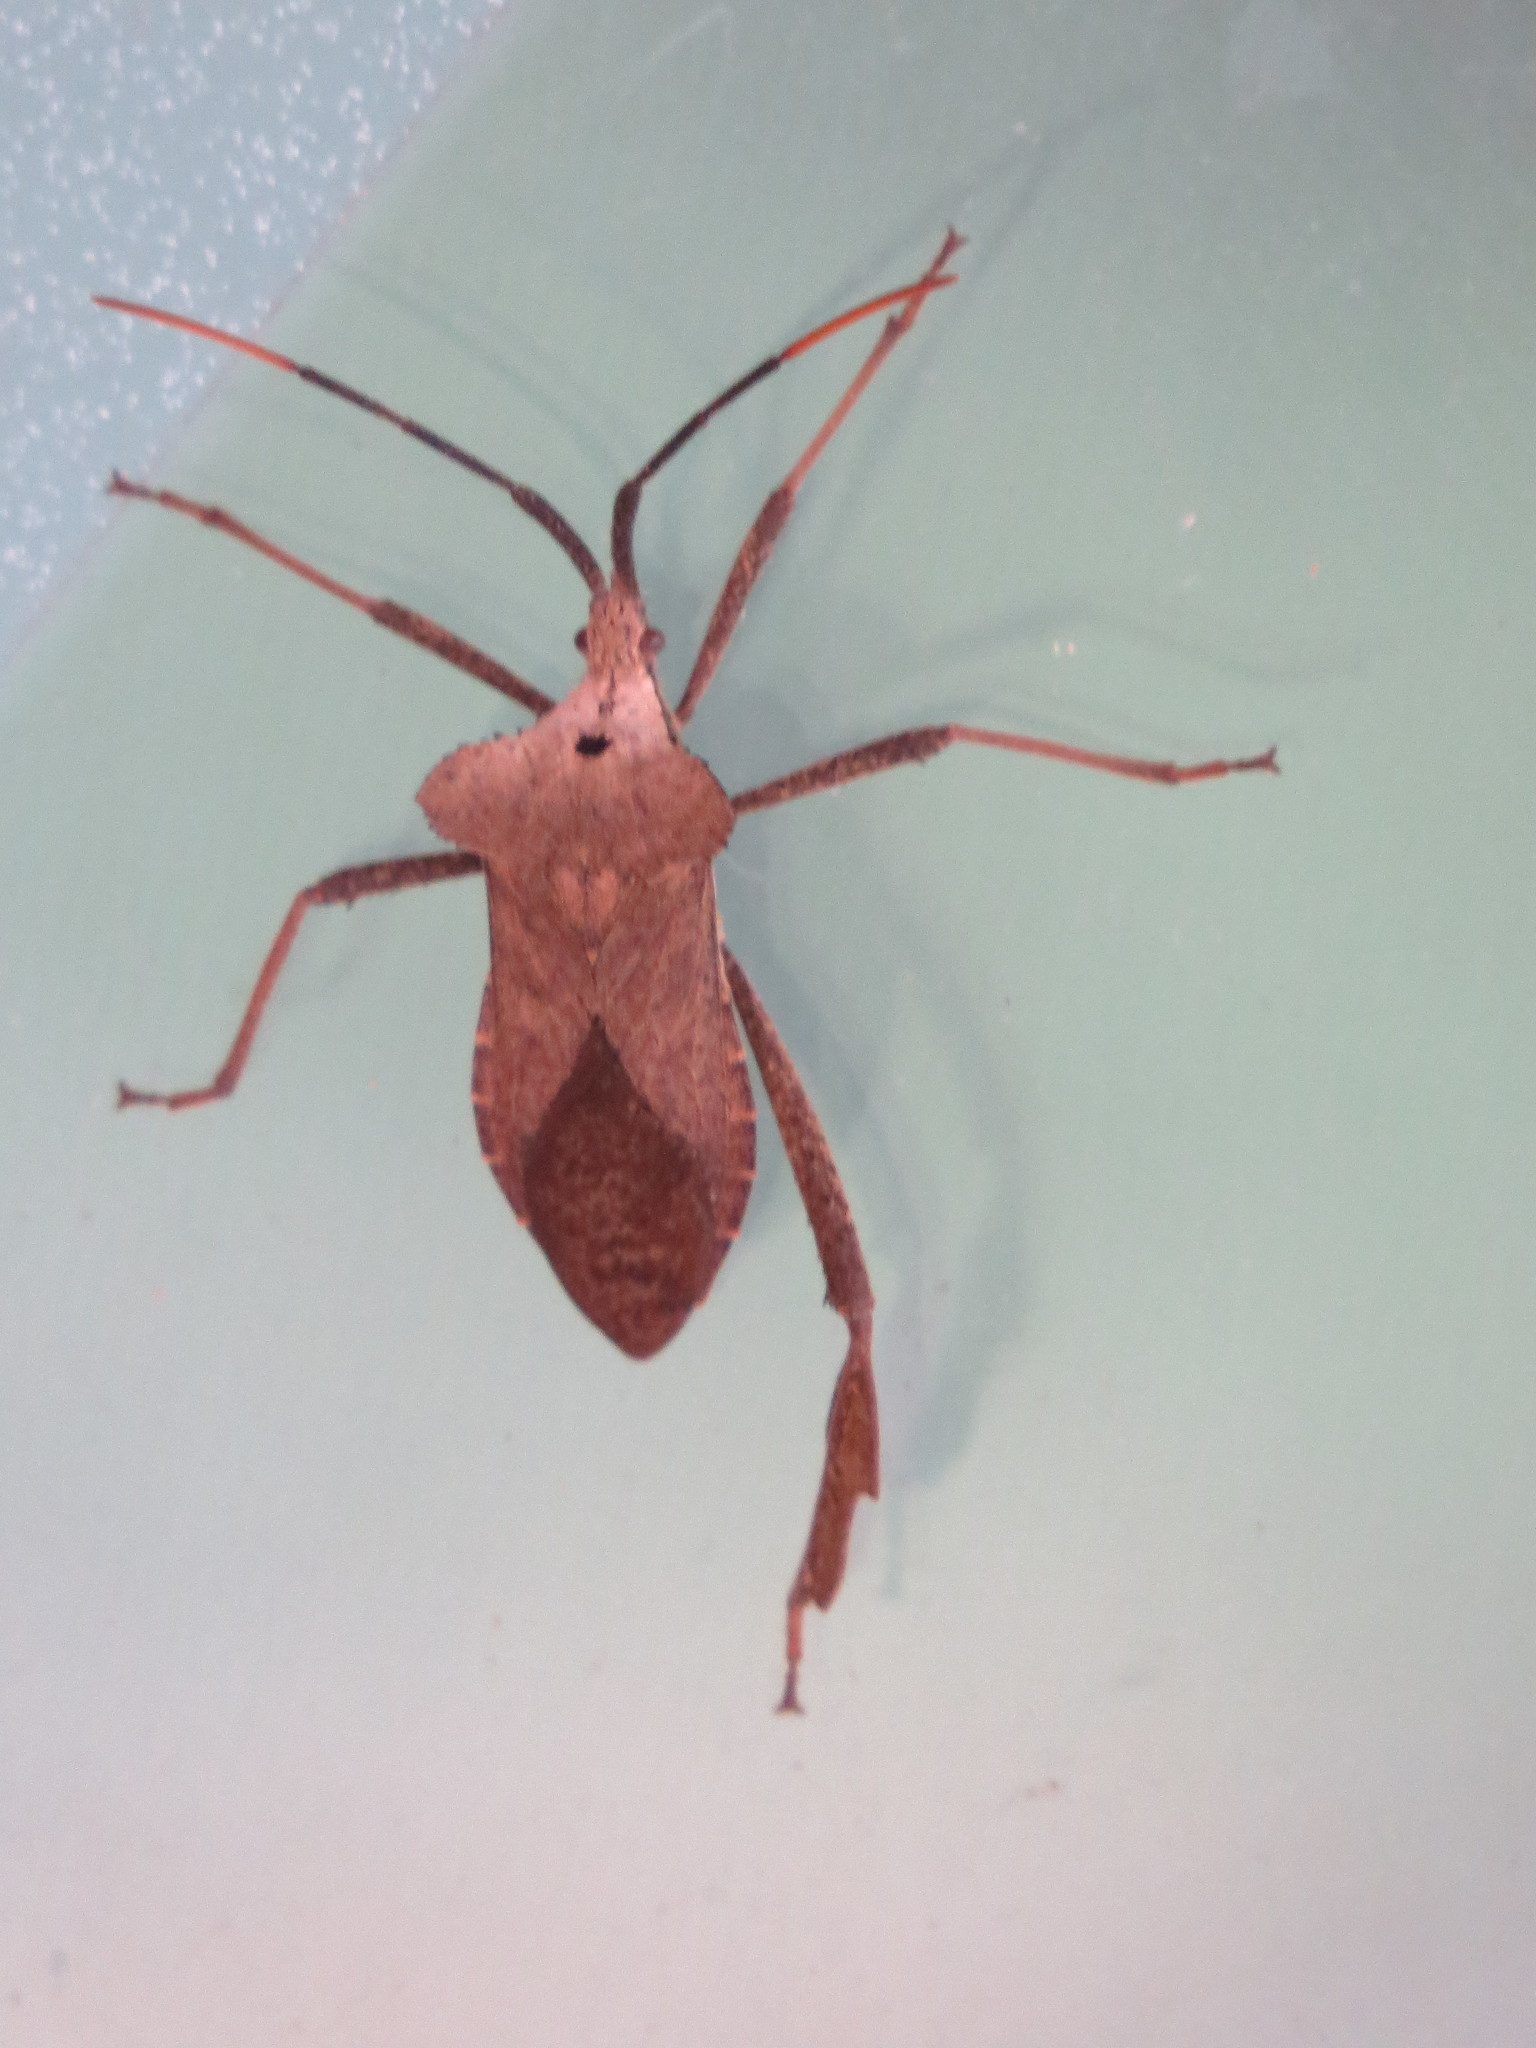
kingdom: Animalia
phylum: Arthropoda
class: Insecta
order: Hemiptera
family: Coreidae
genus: Acanthocephala
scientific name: Acanthocephala alata
